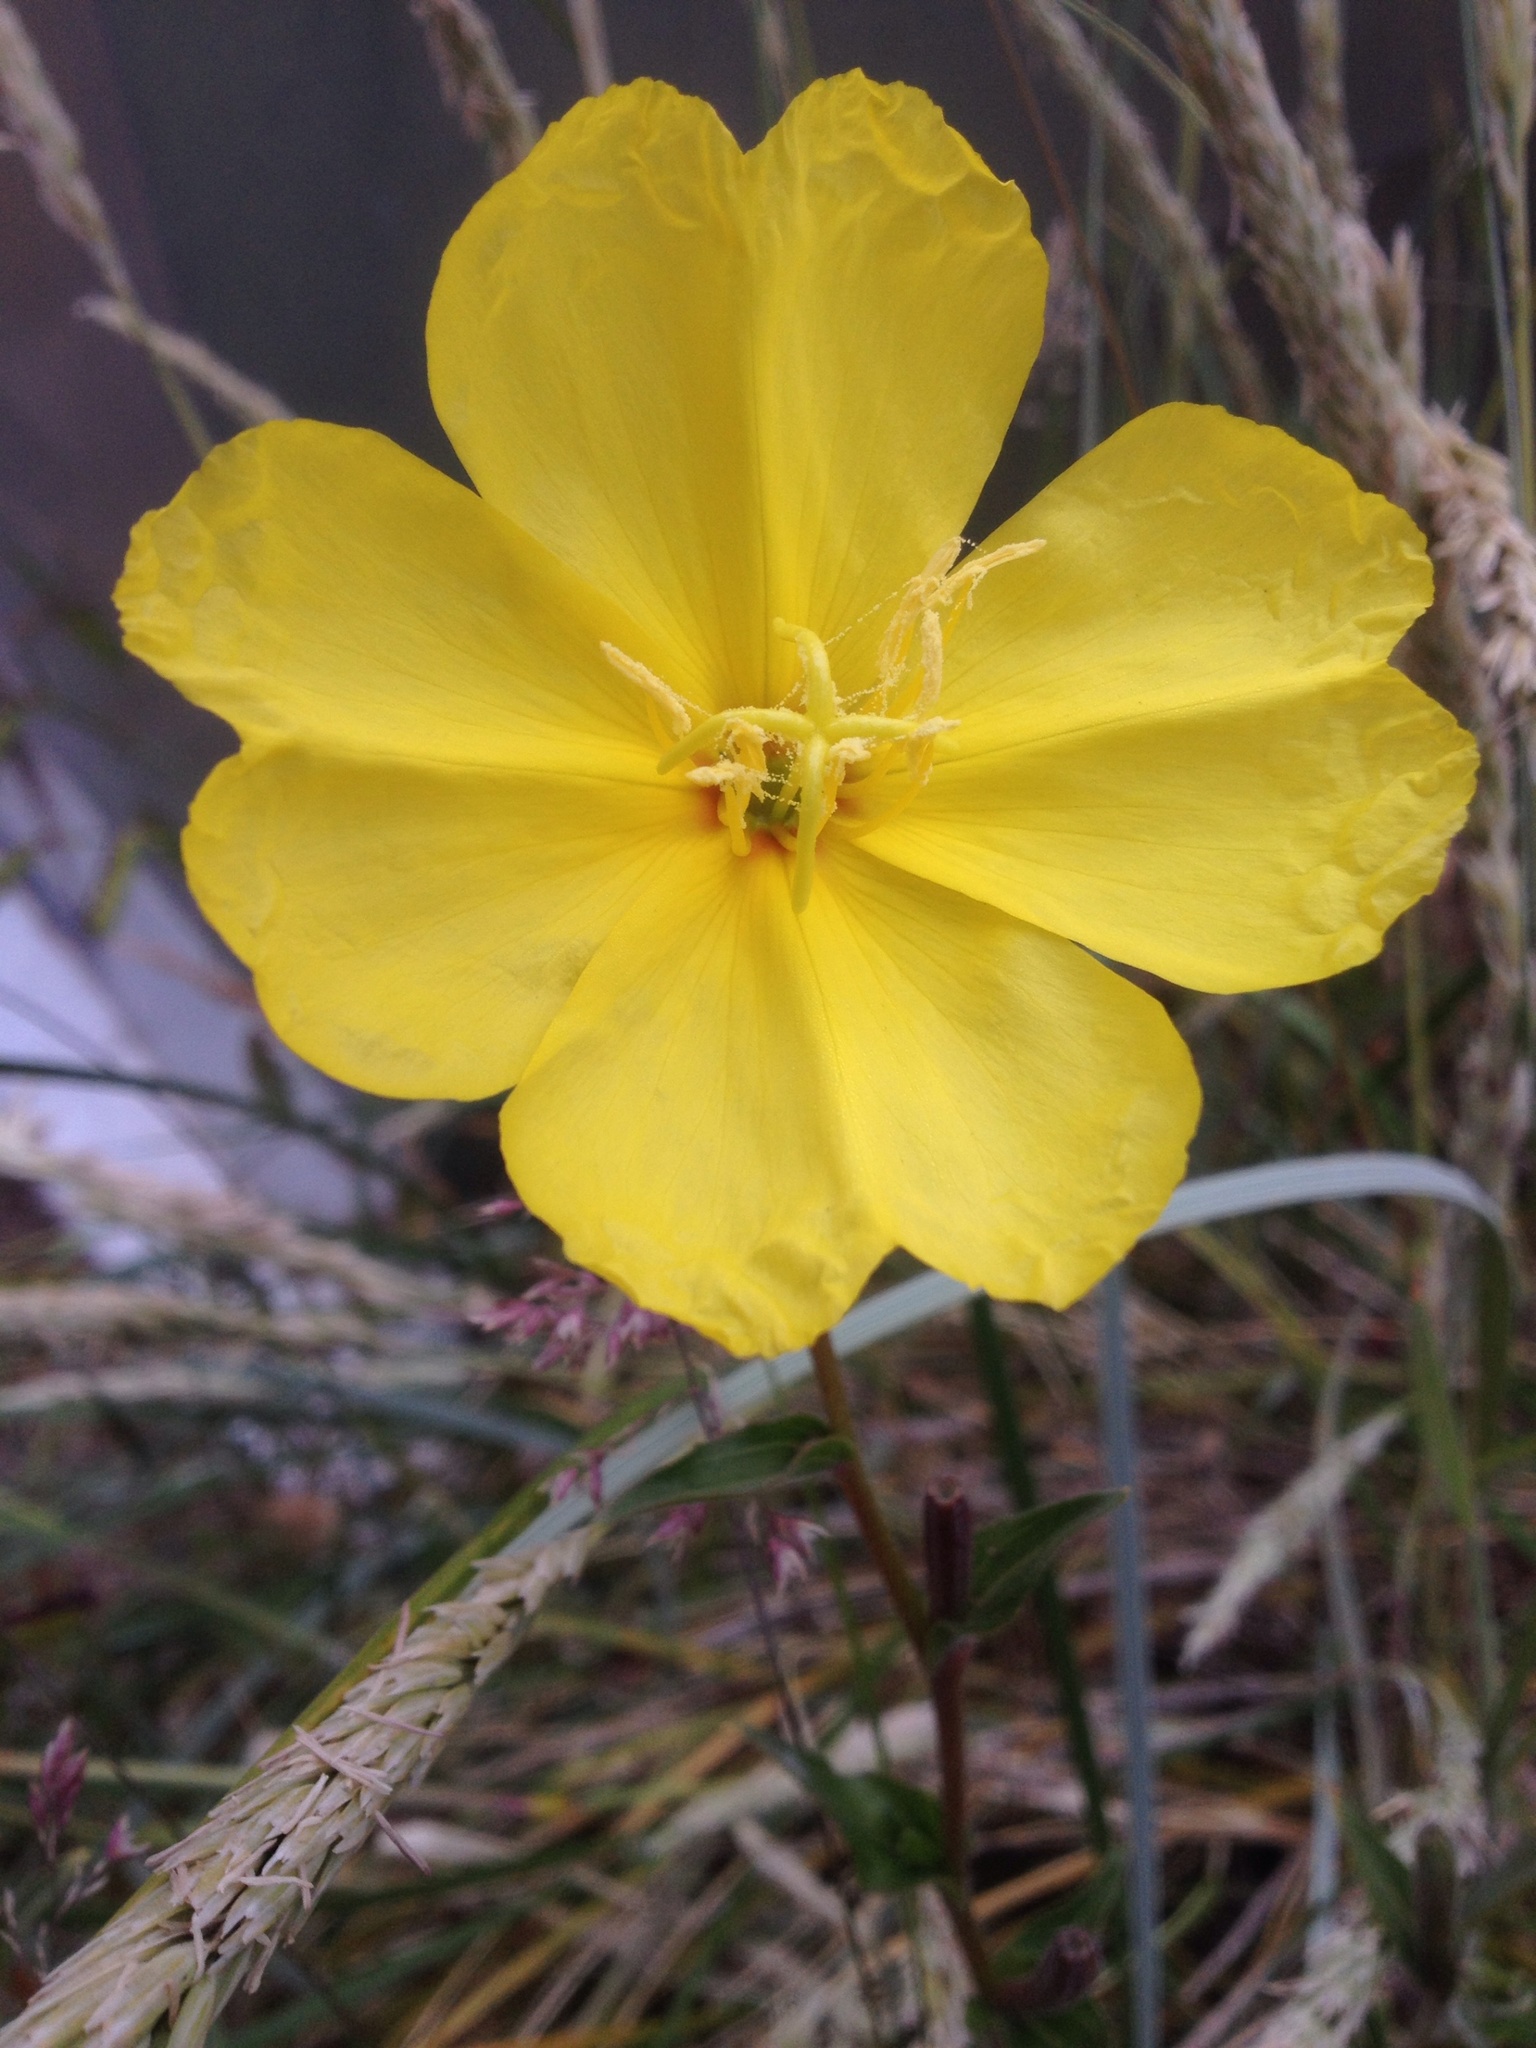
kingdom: Plantae
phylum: Tracheophyta
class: Magnoliopsida
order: Myrtales
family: Onagraceae
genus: Oenothera
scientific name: Oenothera stricta
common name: Fragrant evening-primrose
